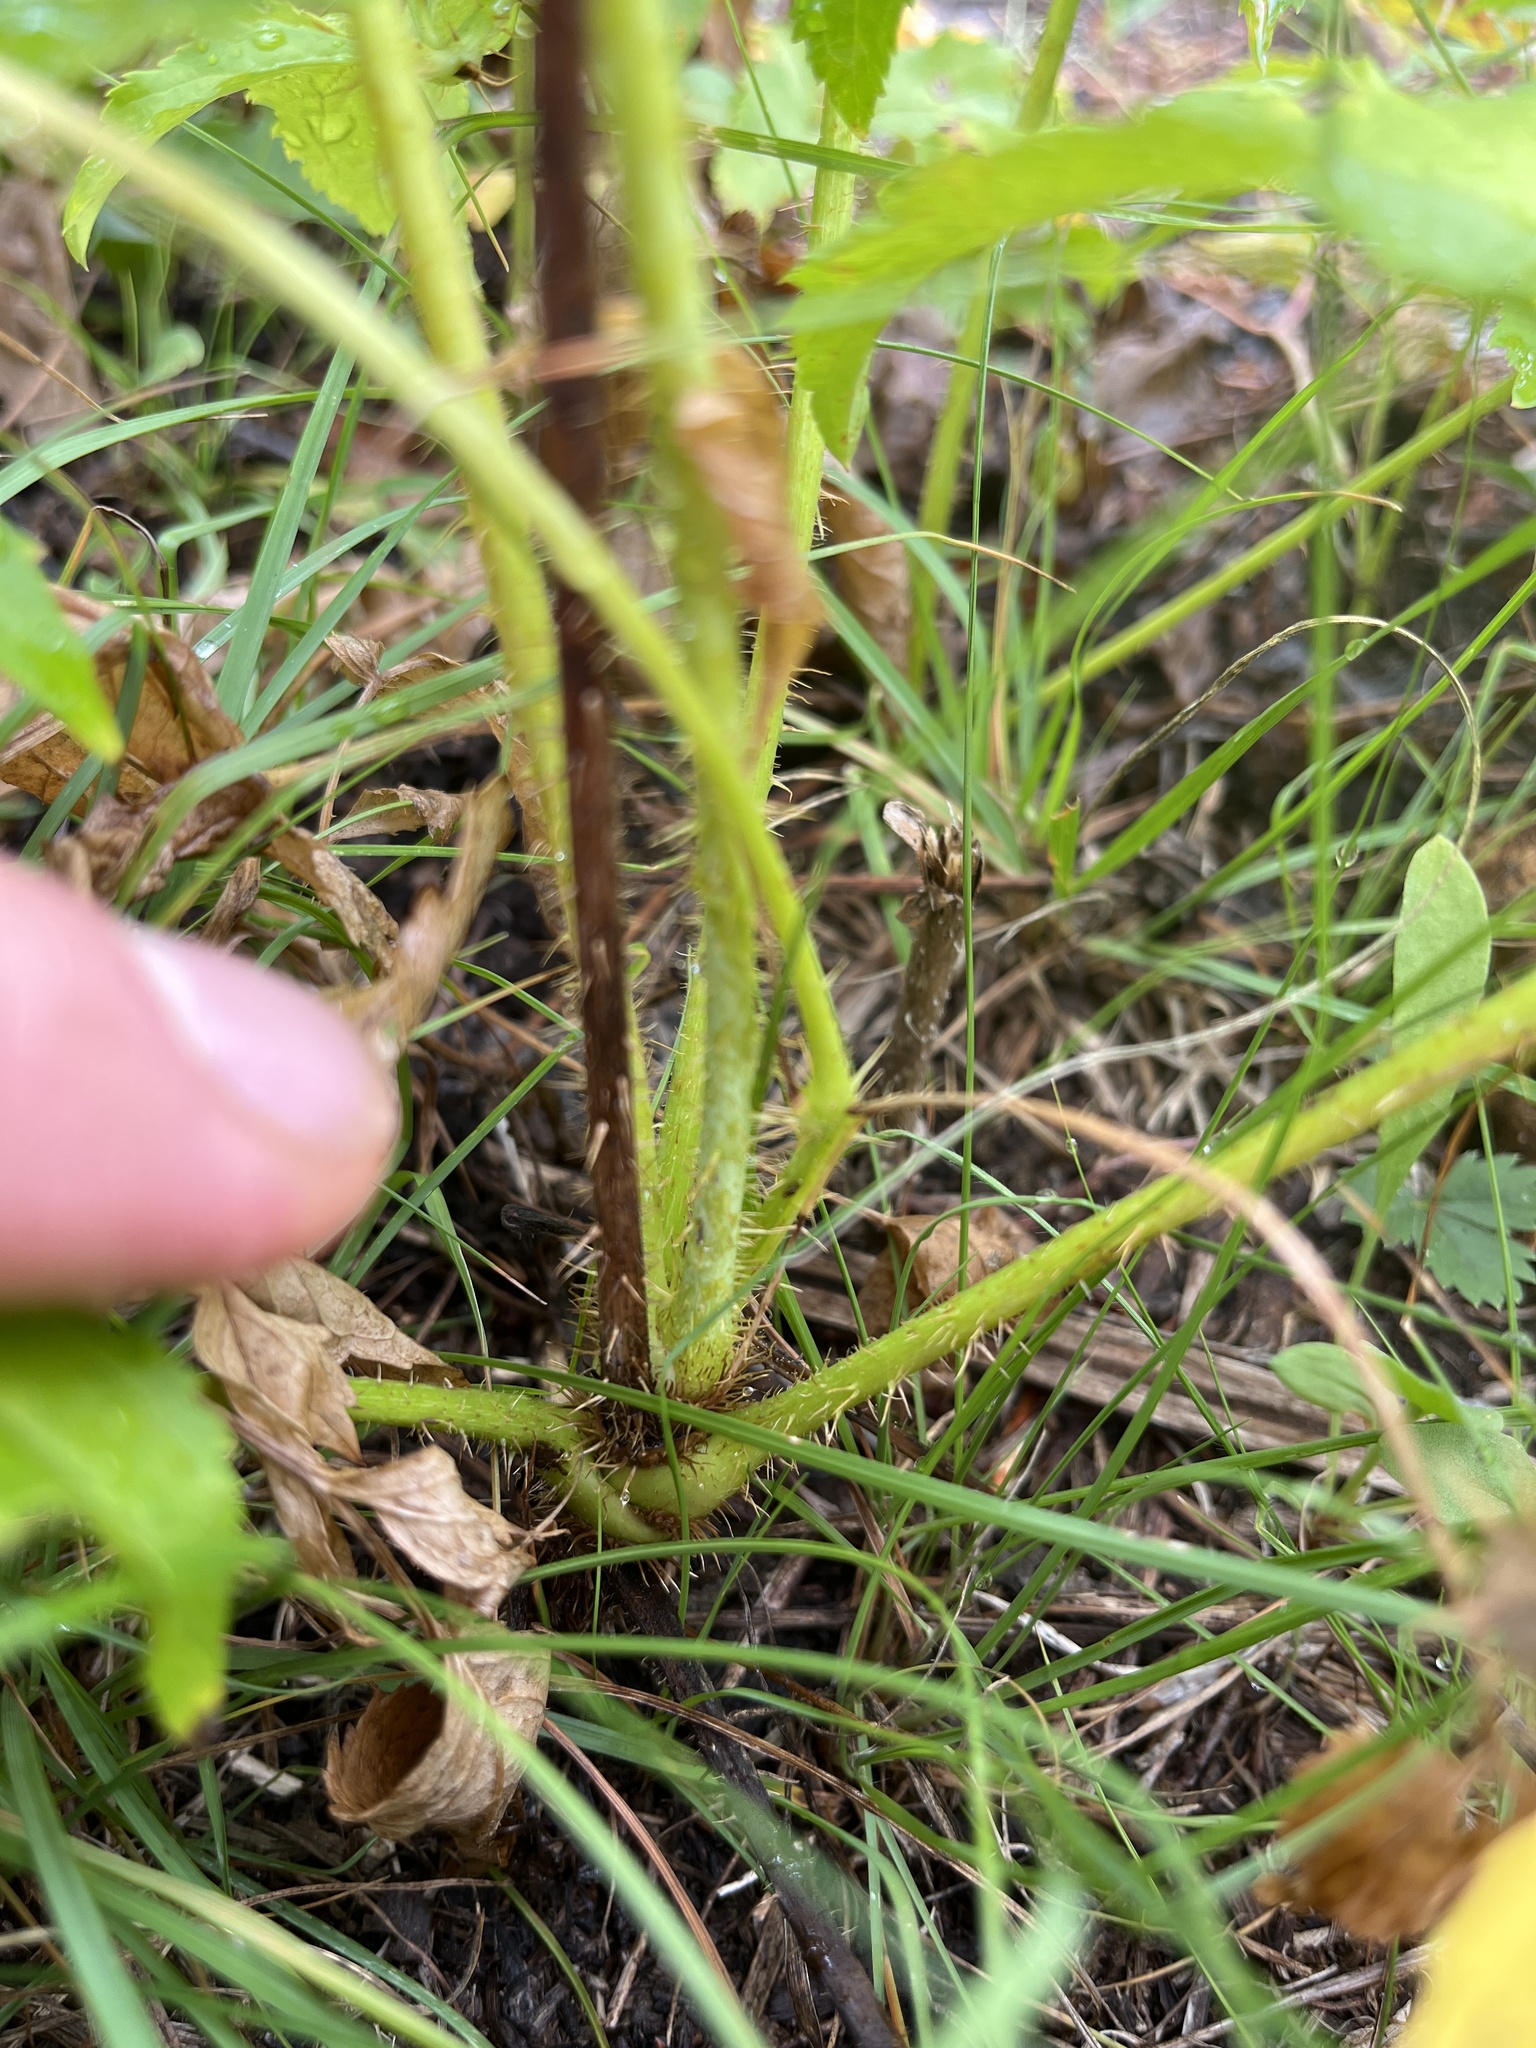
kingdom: Plantae
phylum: Tracheophyta
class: Magnoliopsida
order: Apiales
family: Araliaceae
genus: Aralia
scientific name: Aralia hispida
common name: Bristly sarsaparilla
